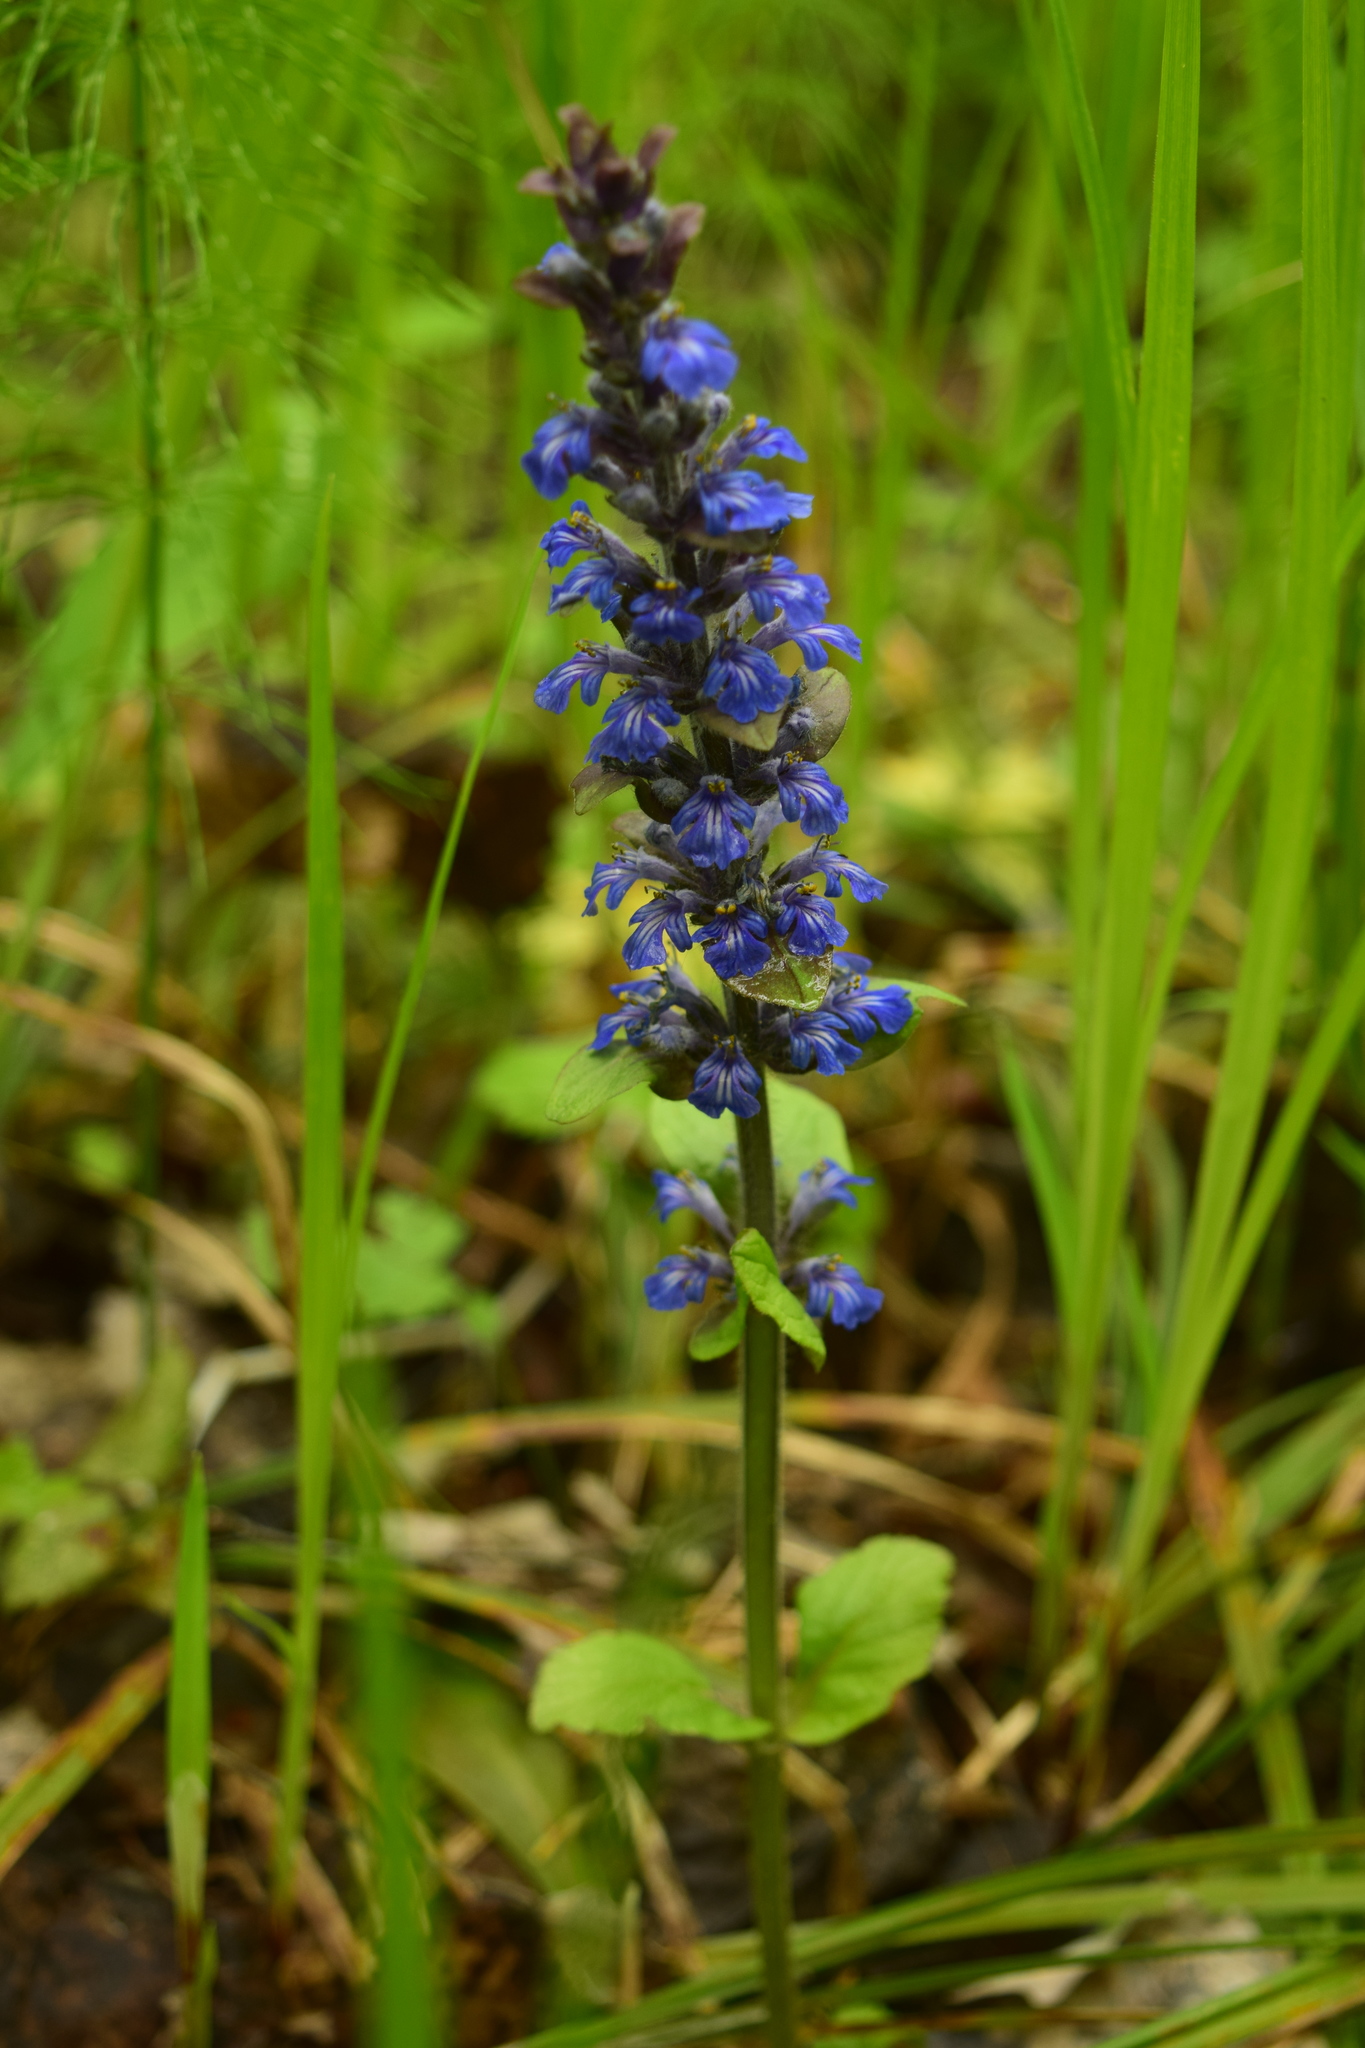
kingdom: Plantae
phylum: Tracheophyta
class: Magnoliopsida
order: Lamiales
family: Lamiaceae
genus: Ajuga
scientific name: Ajuga reptans
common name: Bugle
